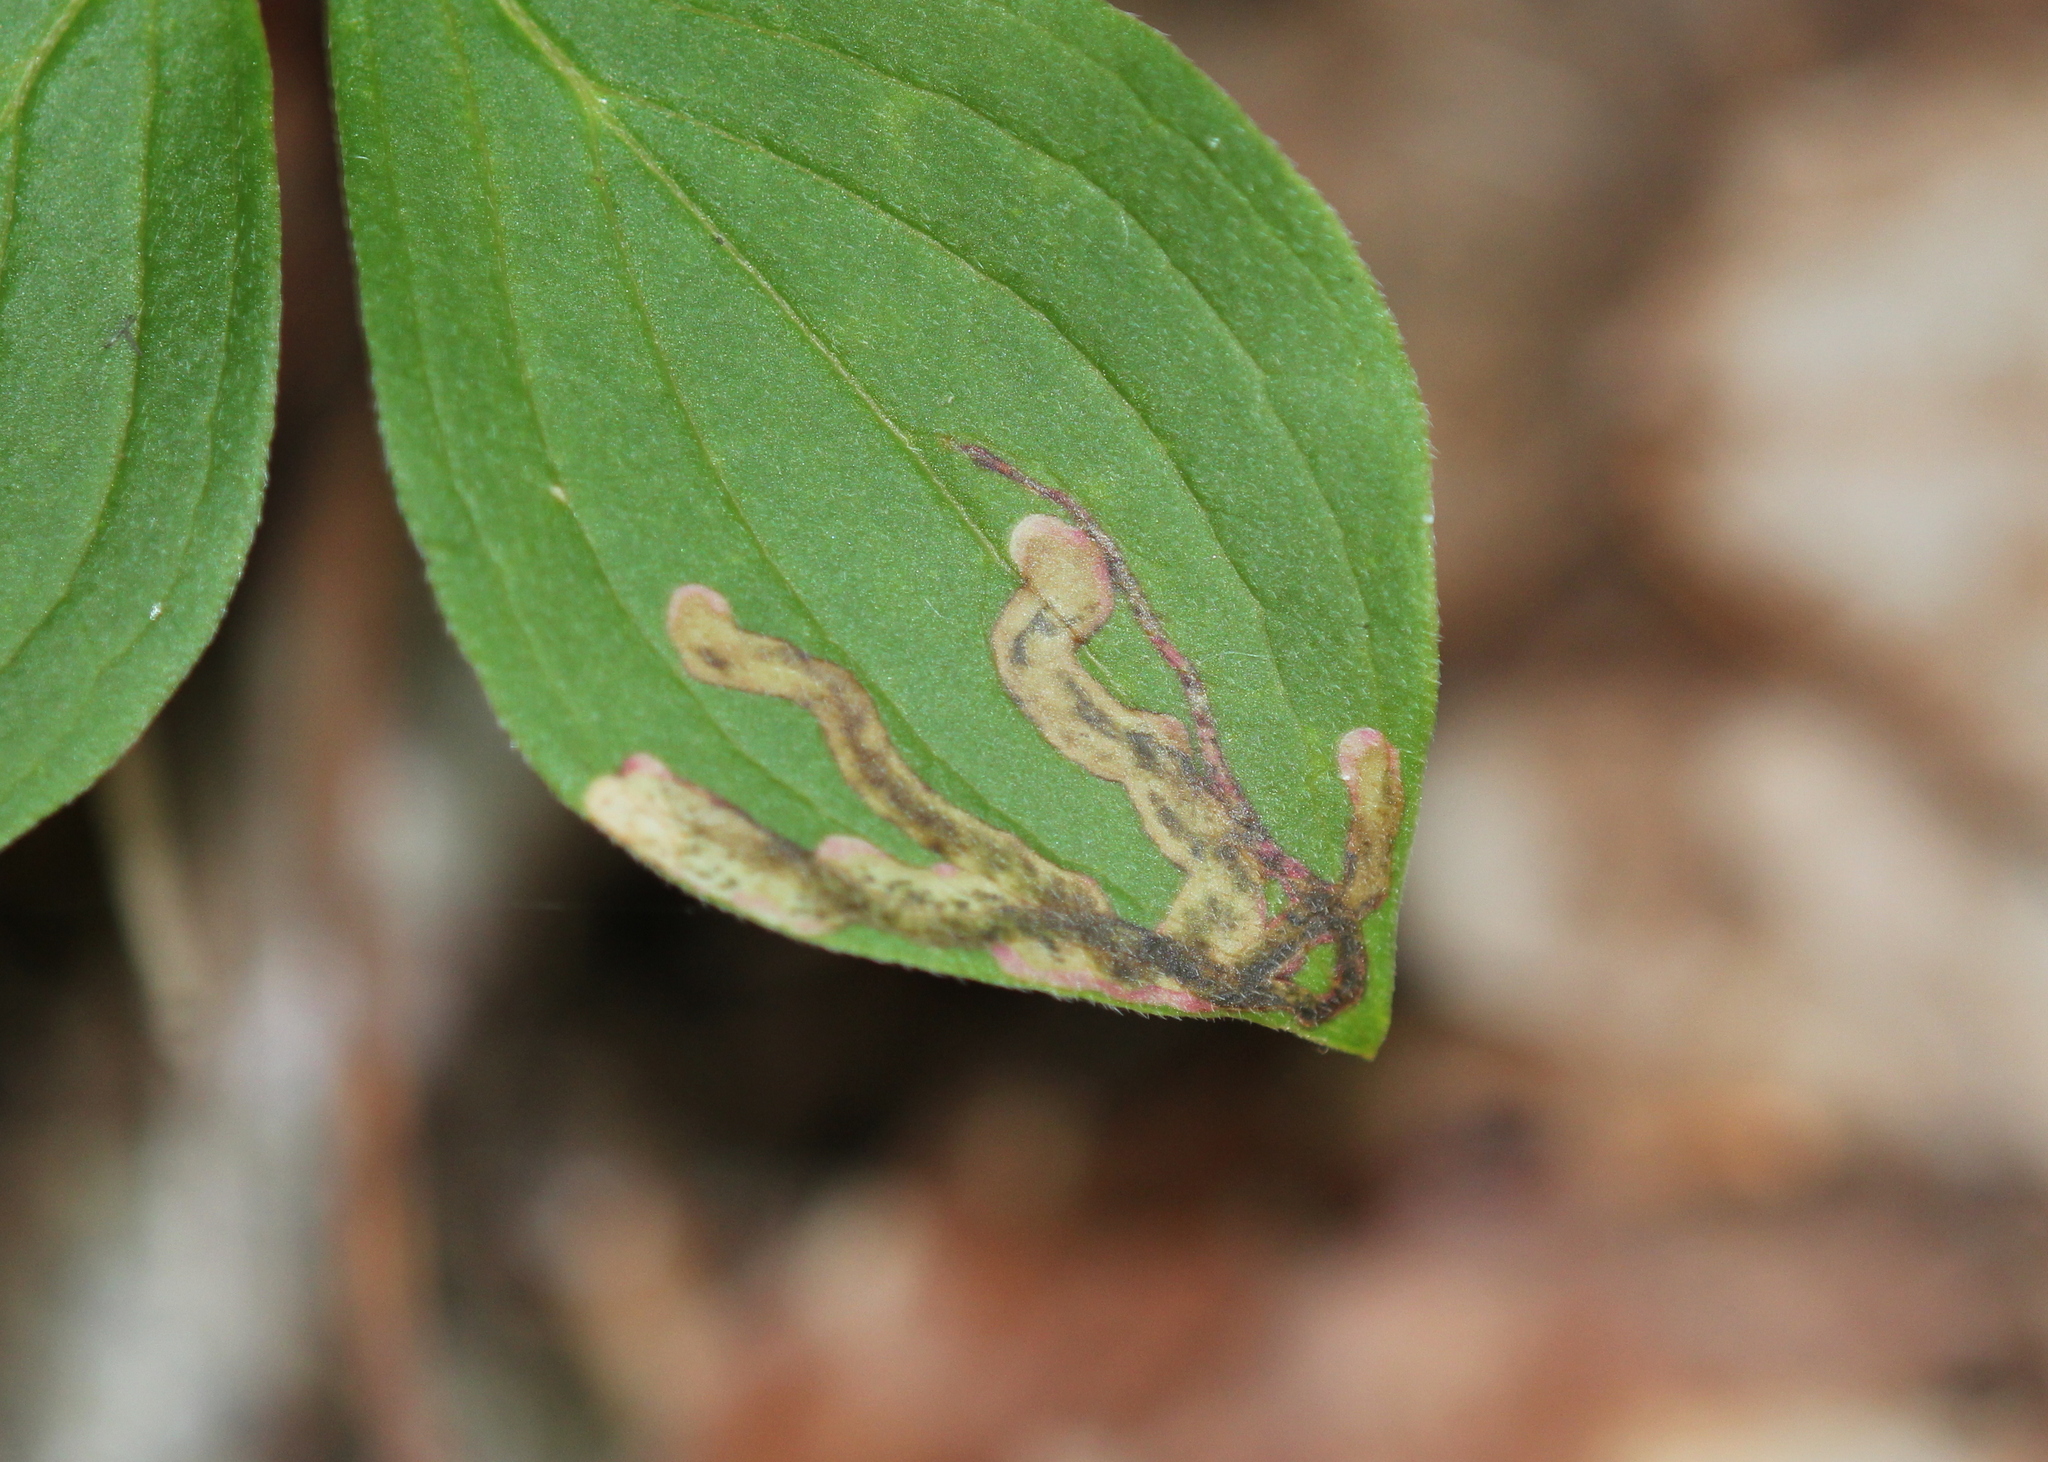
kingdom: Animalia
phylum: Arthropoda
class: Insecta
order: Diptera
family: Agromyzidae
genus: Phytomyza
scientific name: Phytomyza agromyzina
